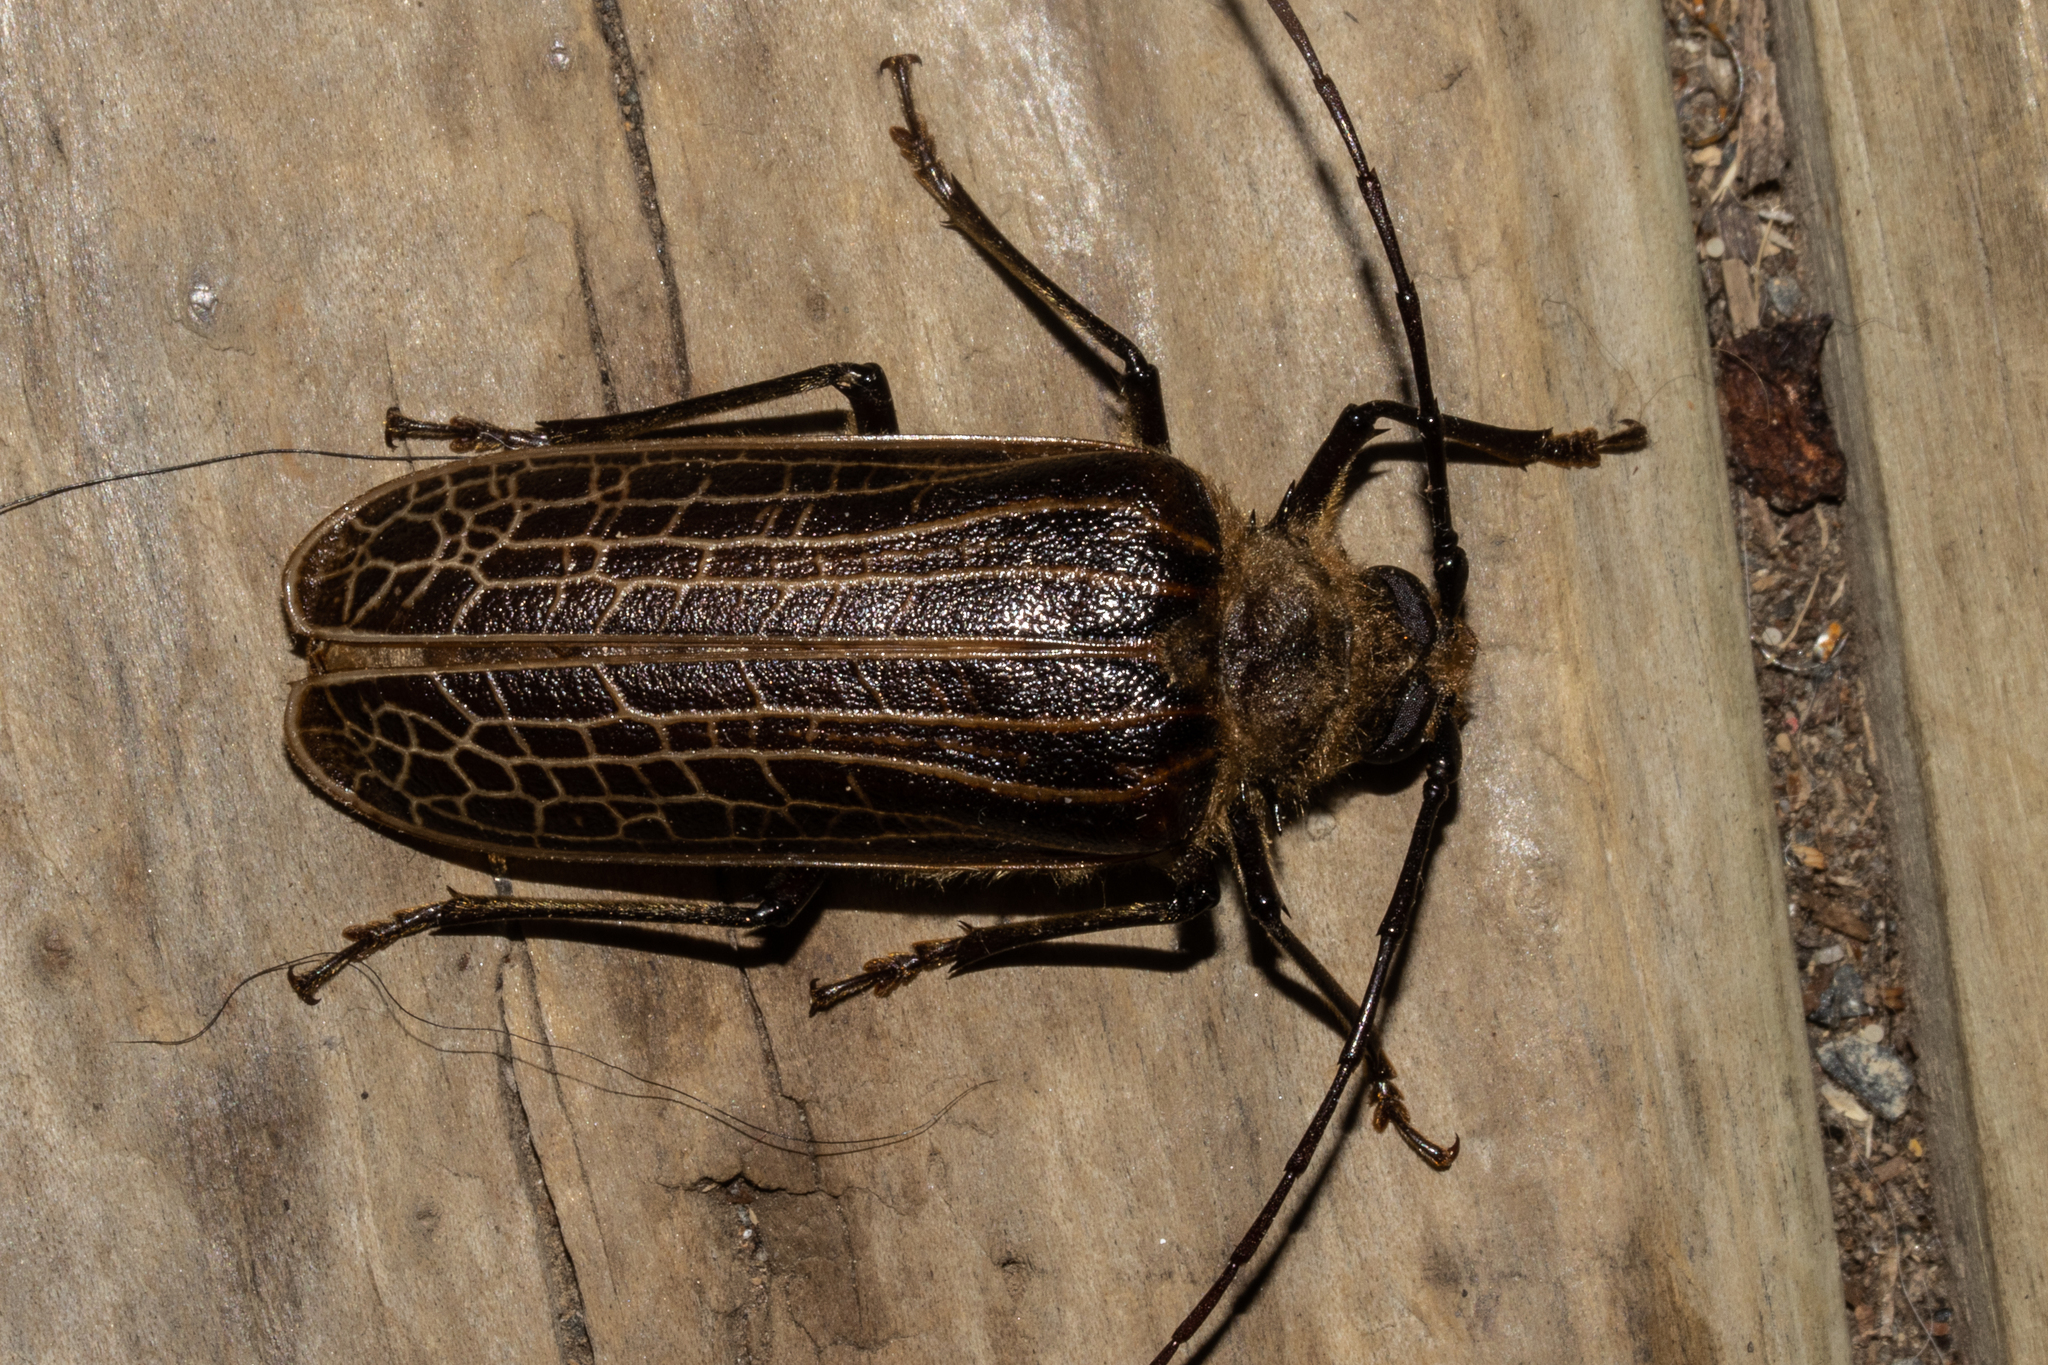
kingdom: Animalia
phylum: Arthropoda
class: Insecta
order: Coleoptera
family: Cerambycidae
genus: Prionoplus
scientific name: Prionoplus reticularis
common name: Huhu beetle
